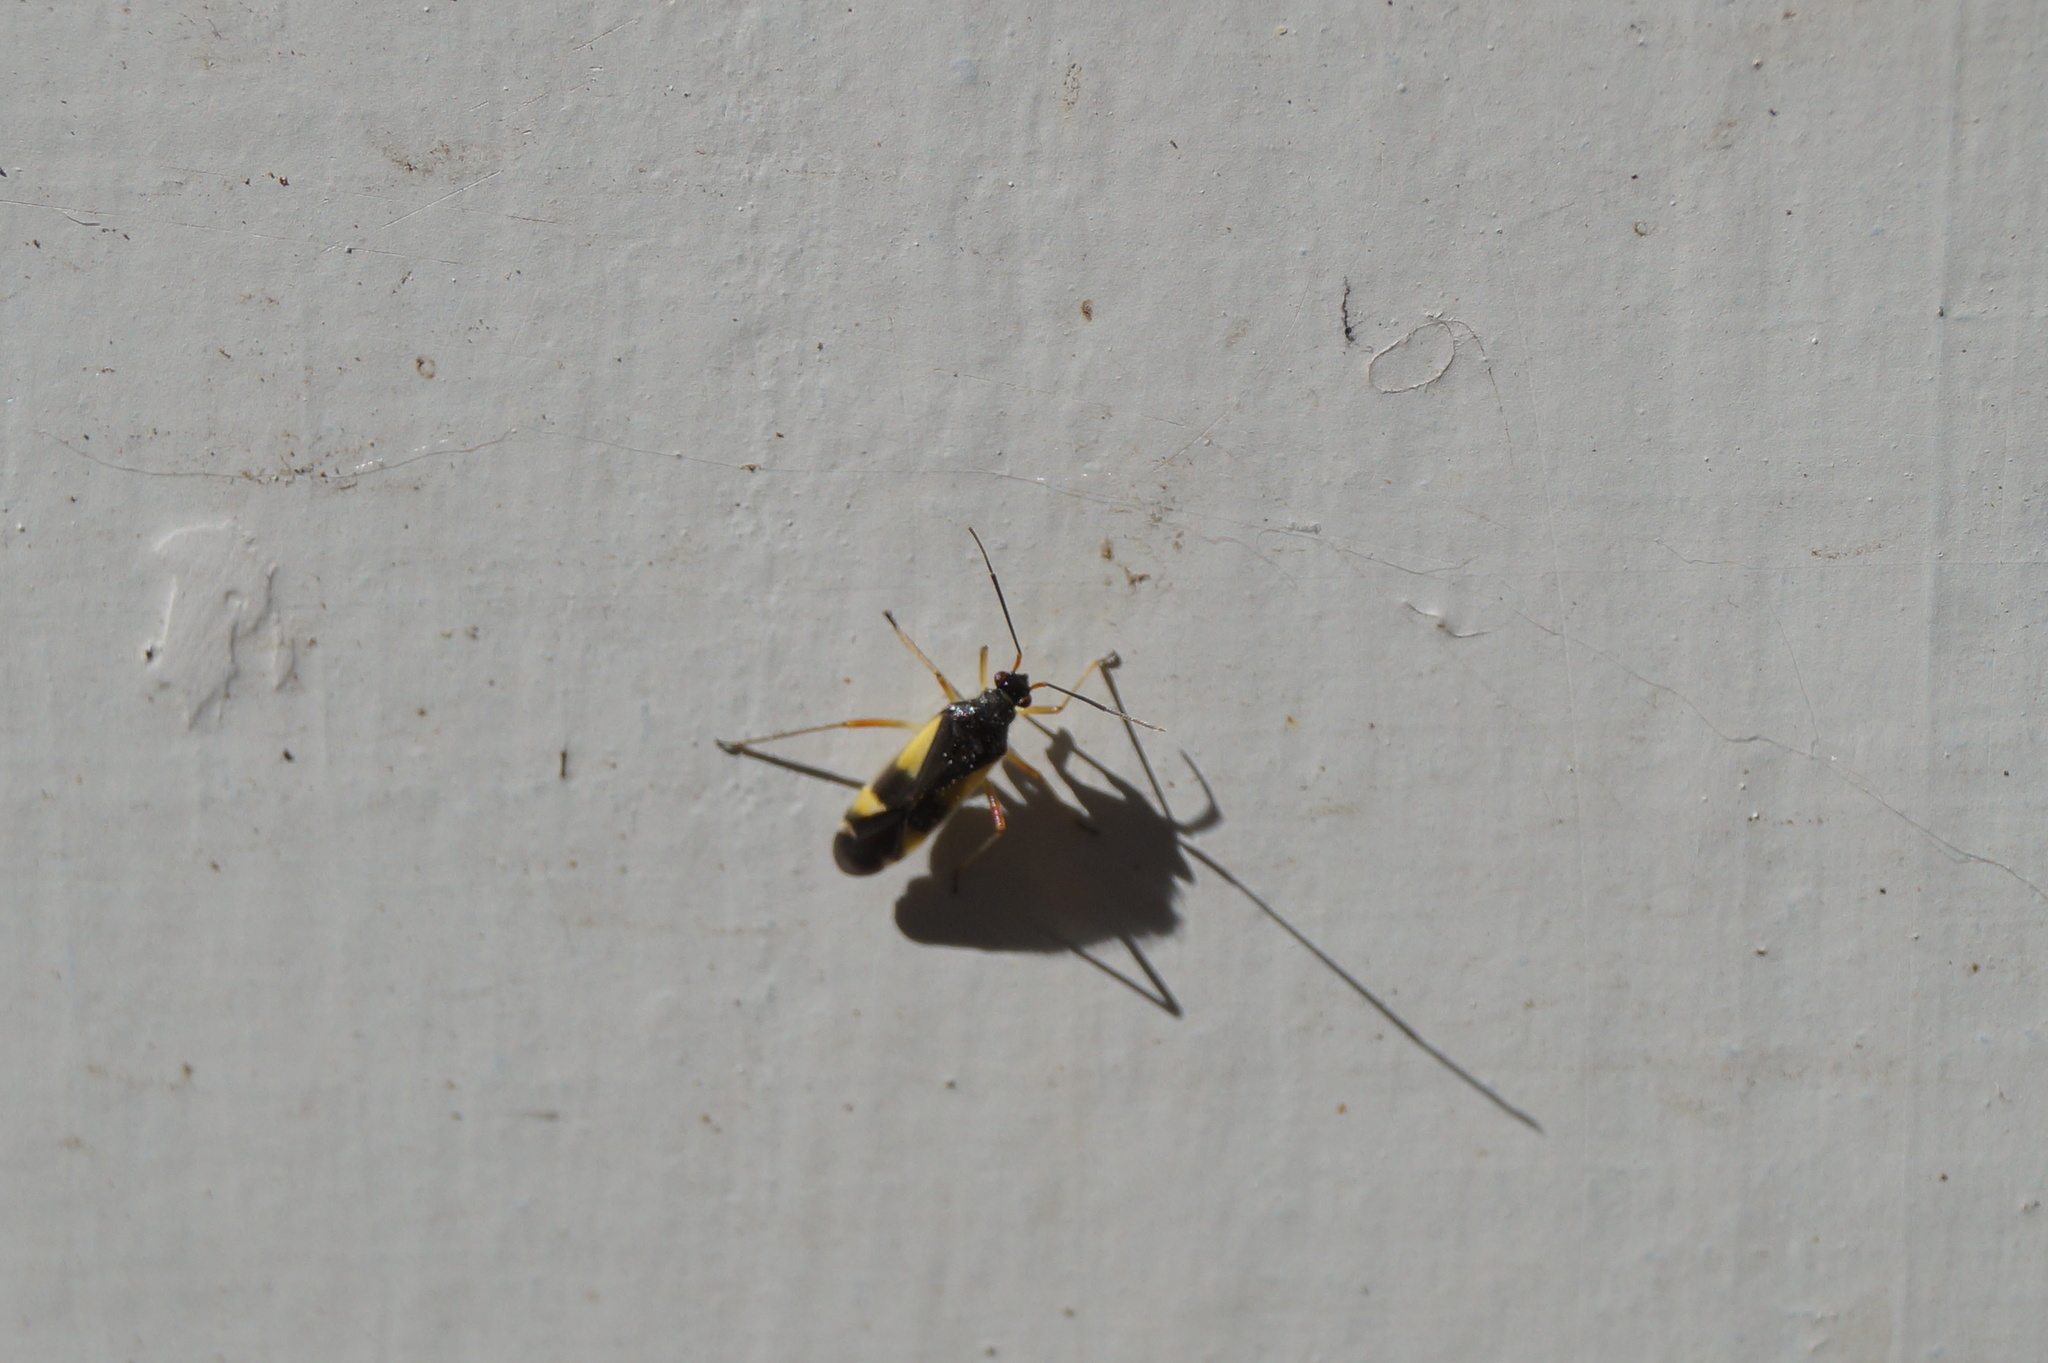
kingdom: Animalia
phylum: Arthropoda
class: Insecta
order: Hemiptera
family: Miridae
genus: Dryophilocoris
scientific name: Dryophilocoris flavoquadrimaculatus
